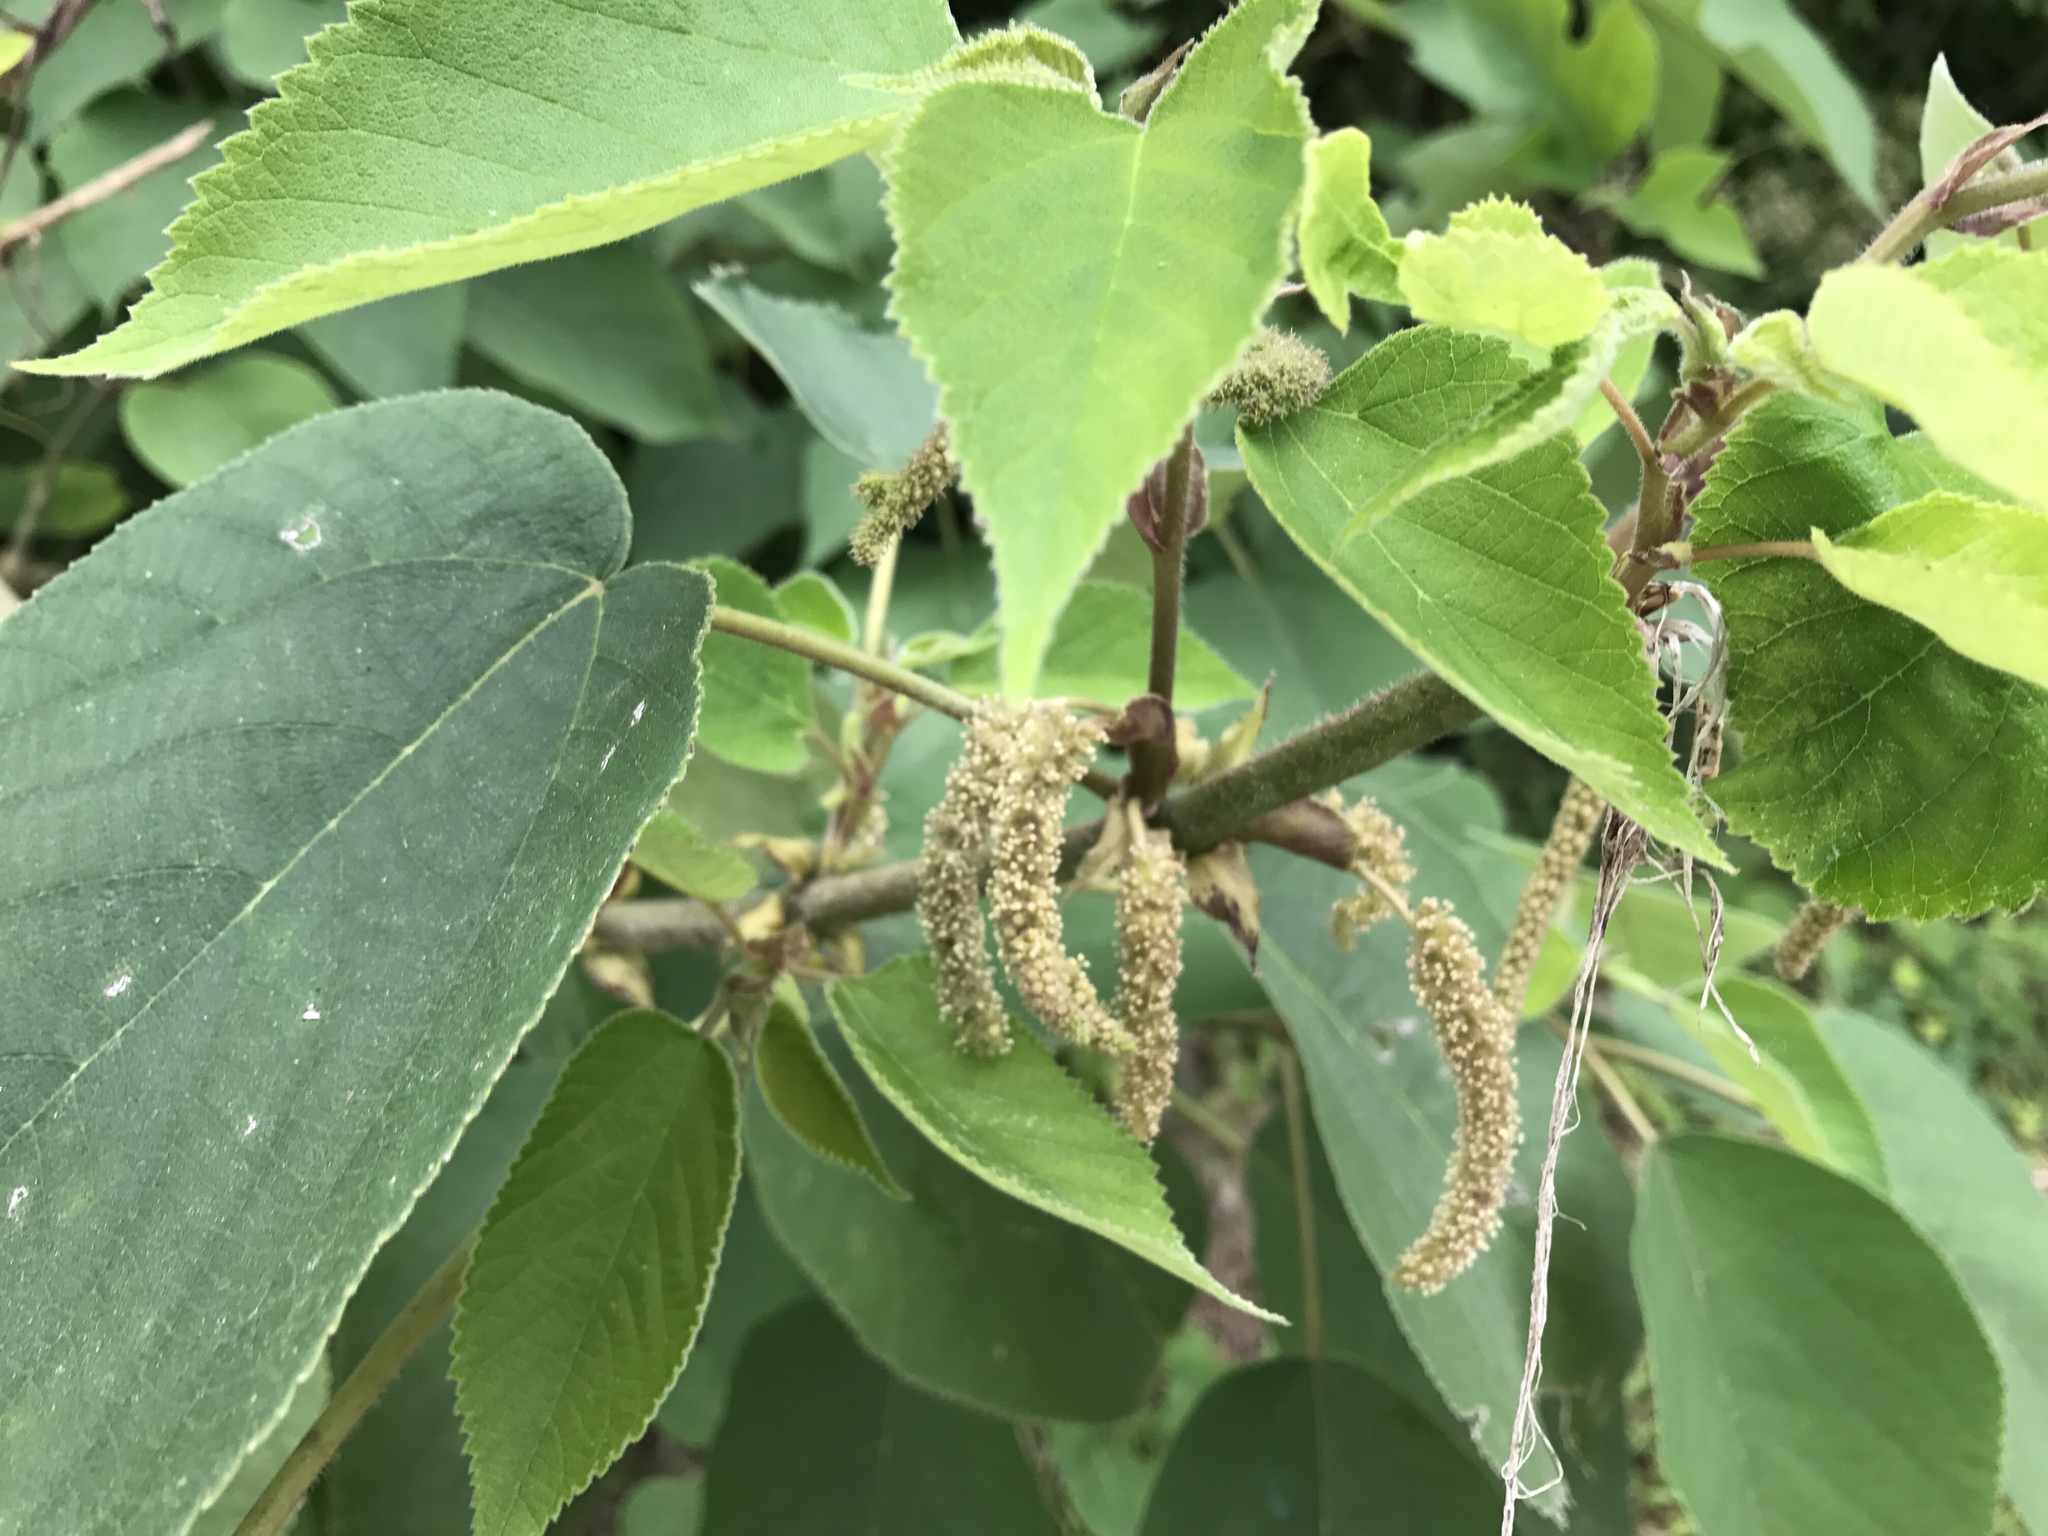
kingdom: Plantae
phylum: Tracheophyta
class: Magnoliopsida
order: Rosales
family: Moraceae
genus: Broussonetia
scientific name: Broussonetia papyrifera
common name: Paper mulberry
